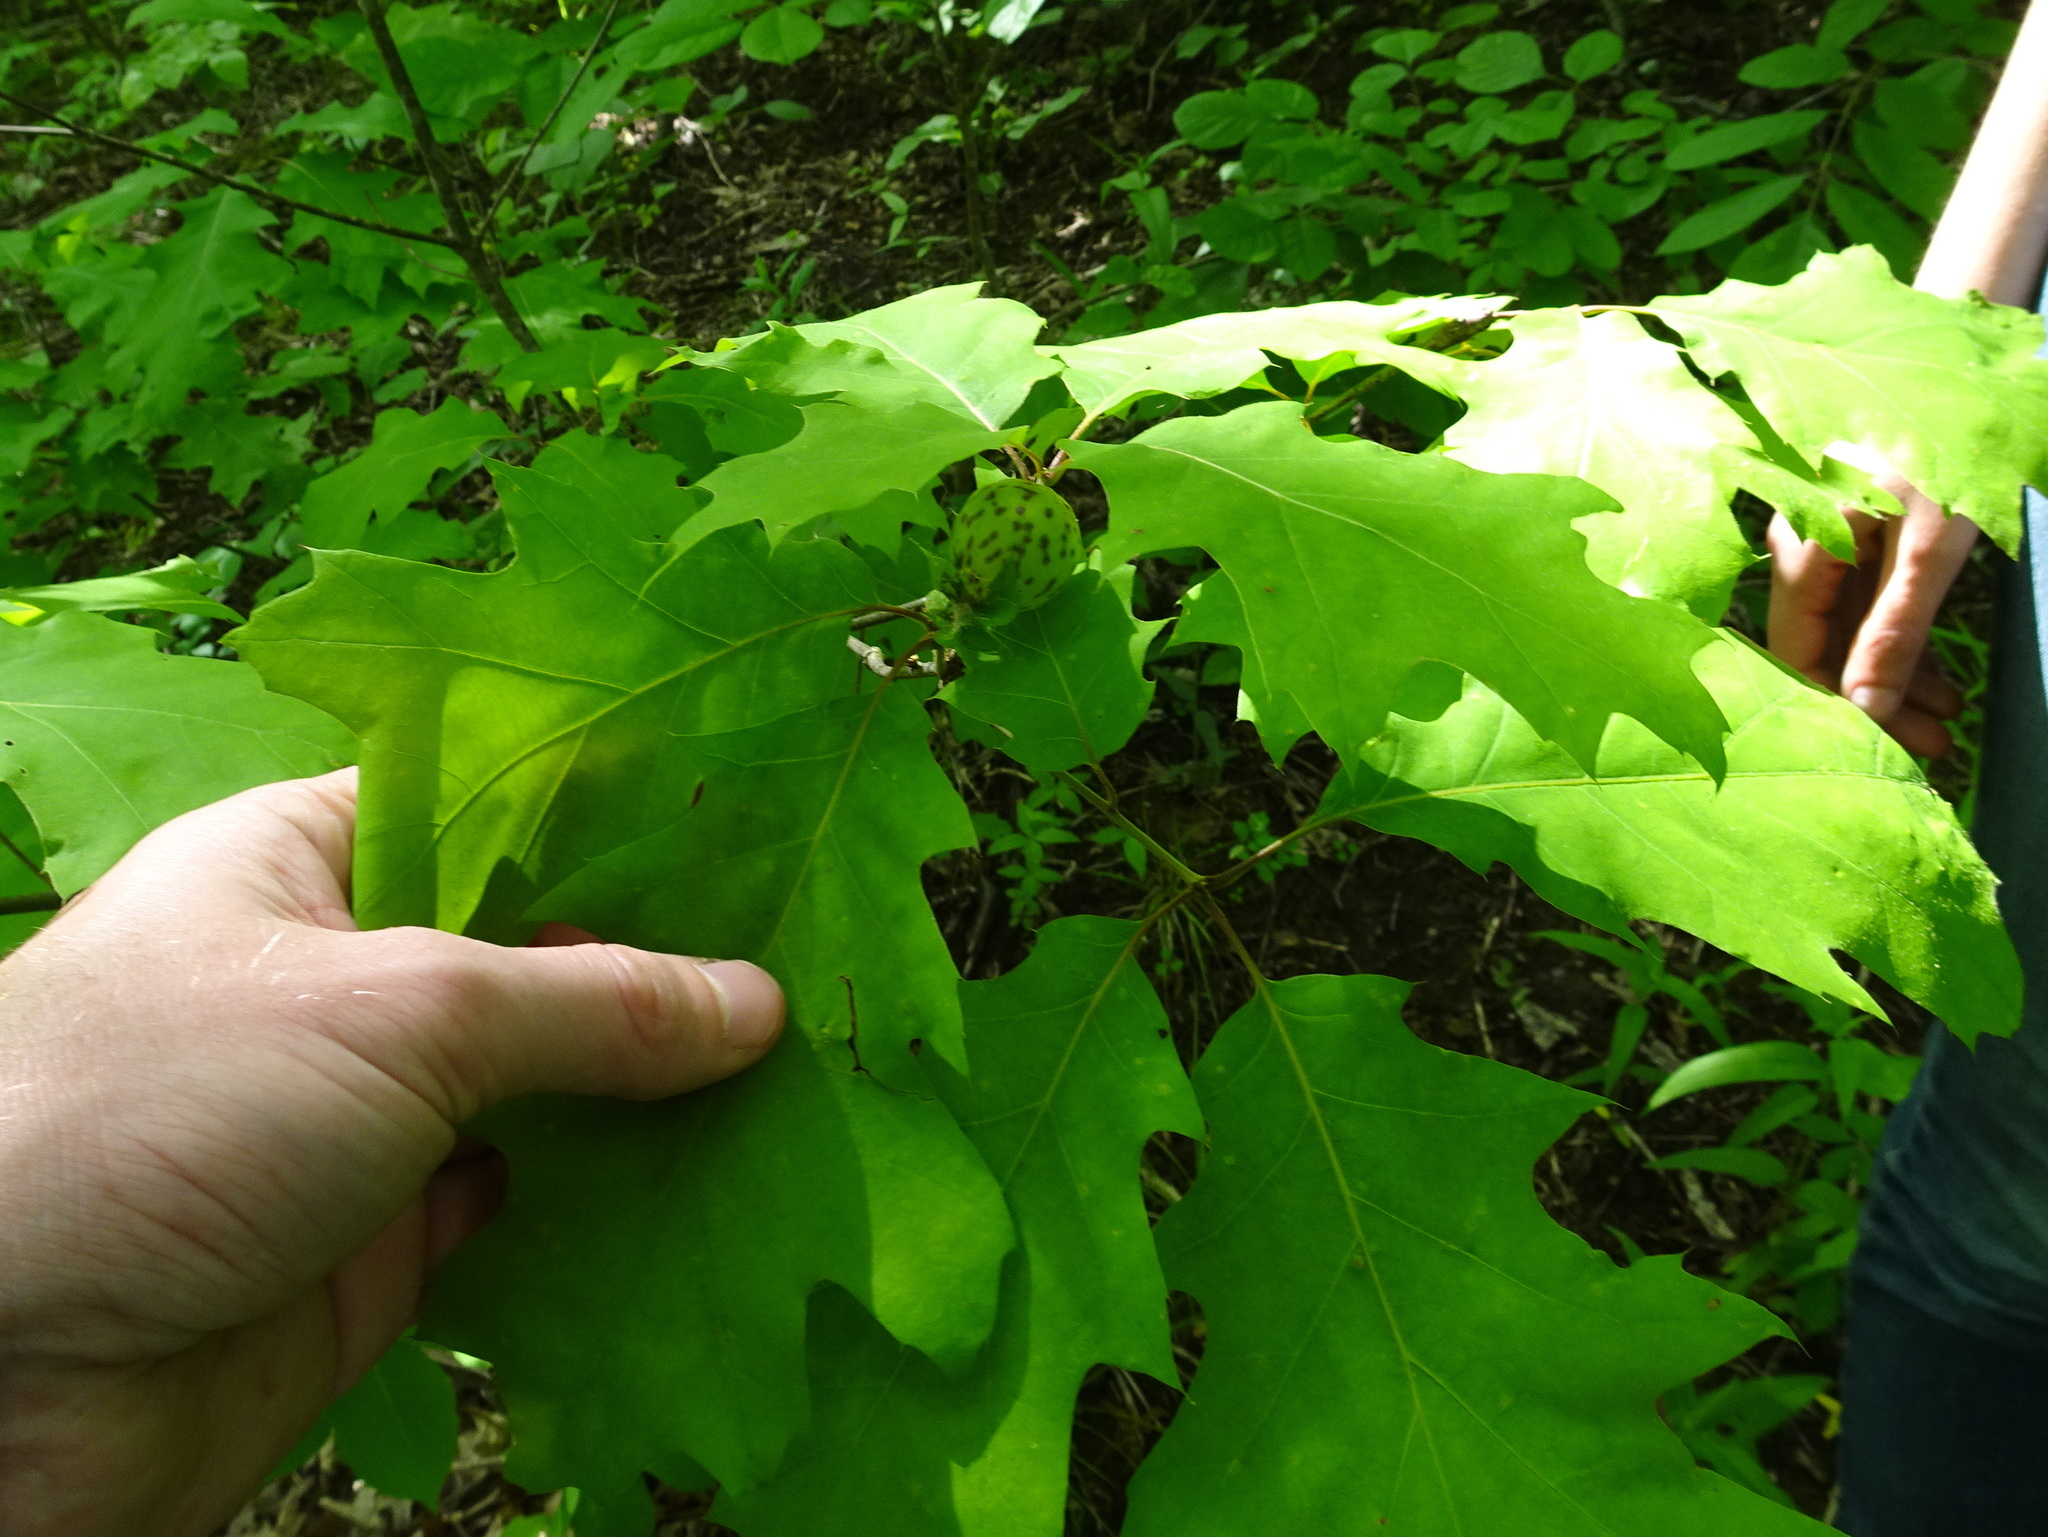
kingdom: Animalia
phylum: Arthropoda
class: Insecta
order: Hymenoptera
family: Cynipidae
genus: Amphibolips
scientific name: Amphibolips
